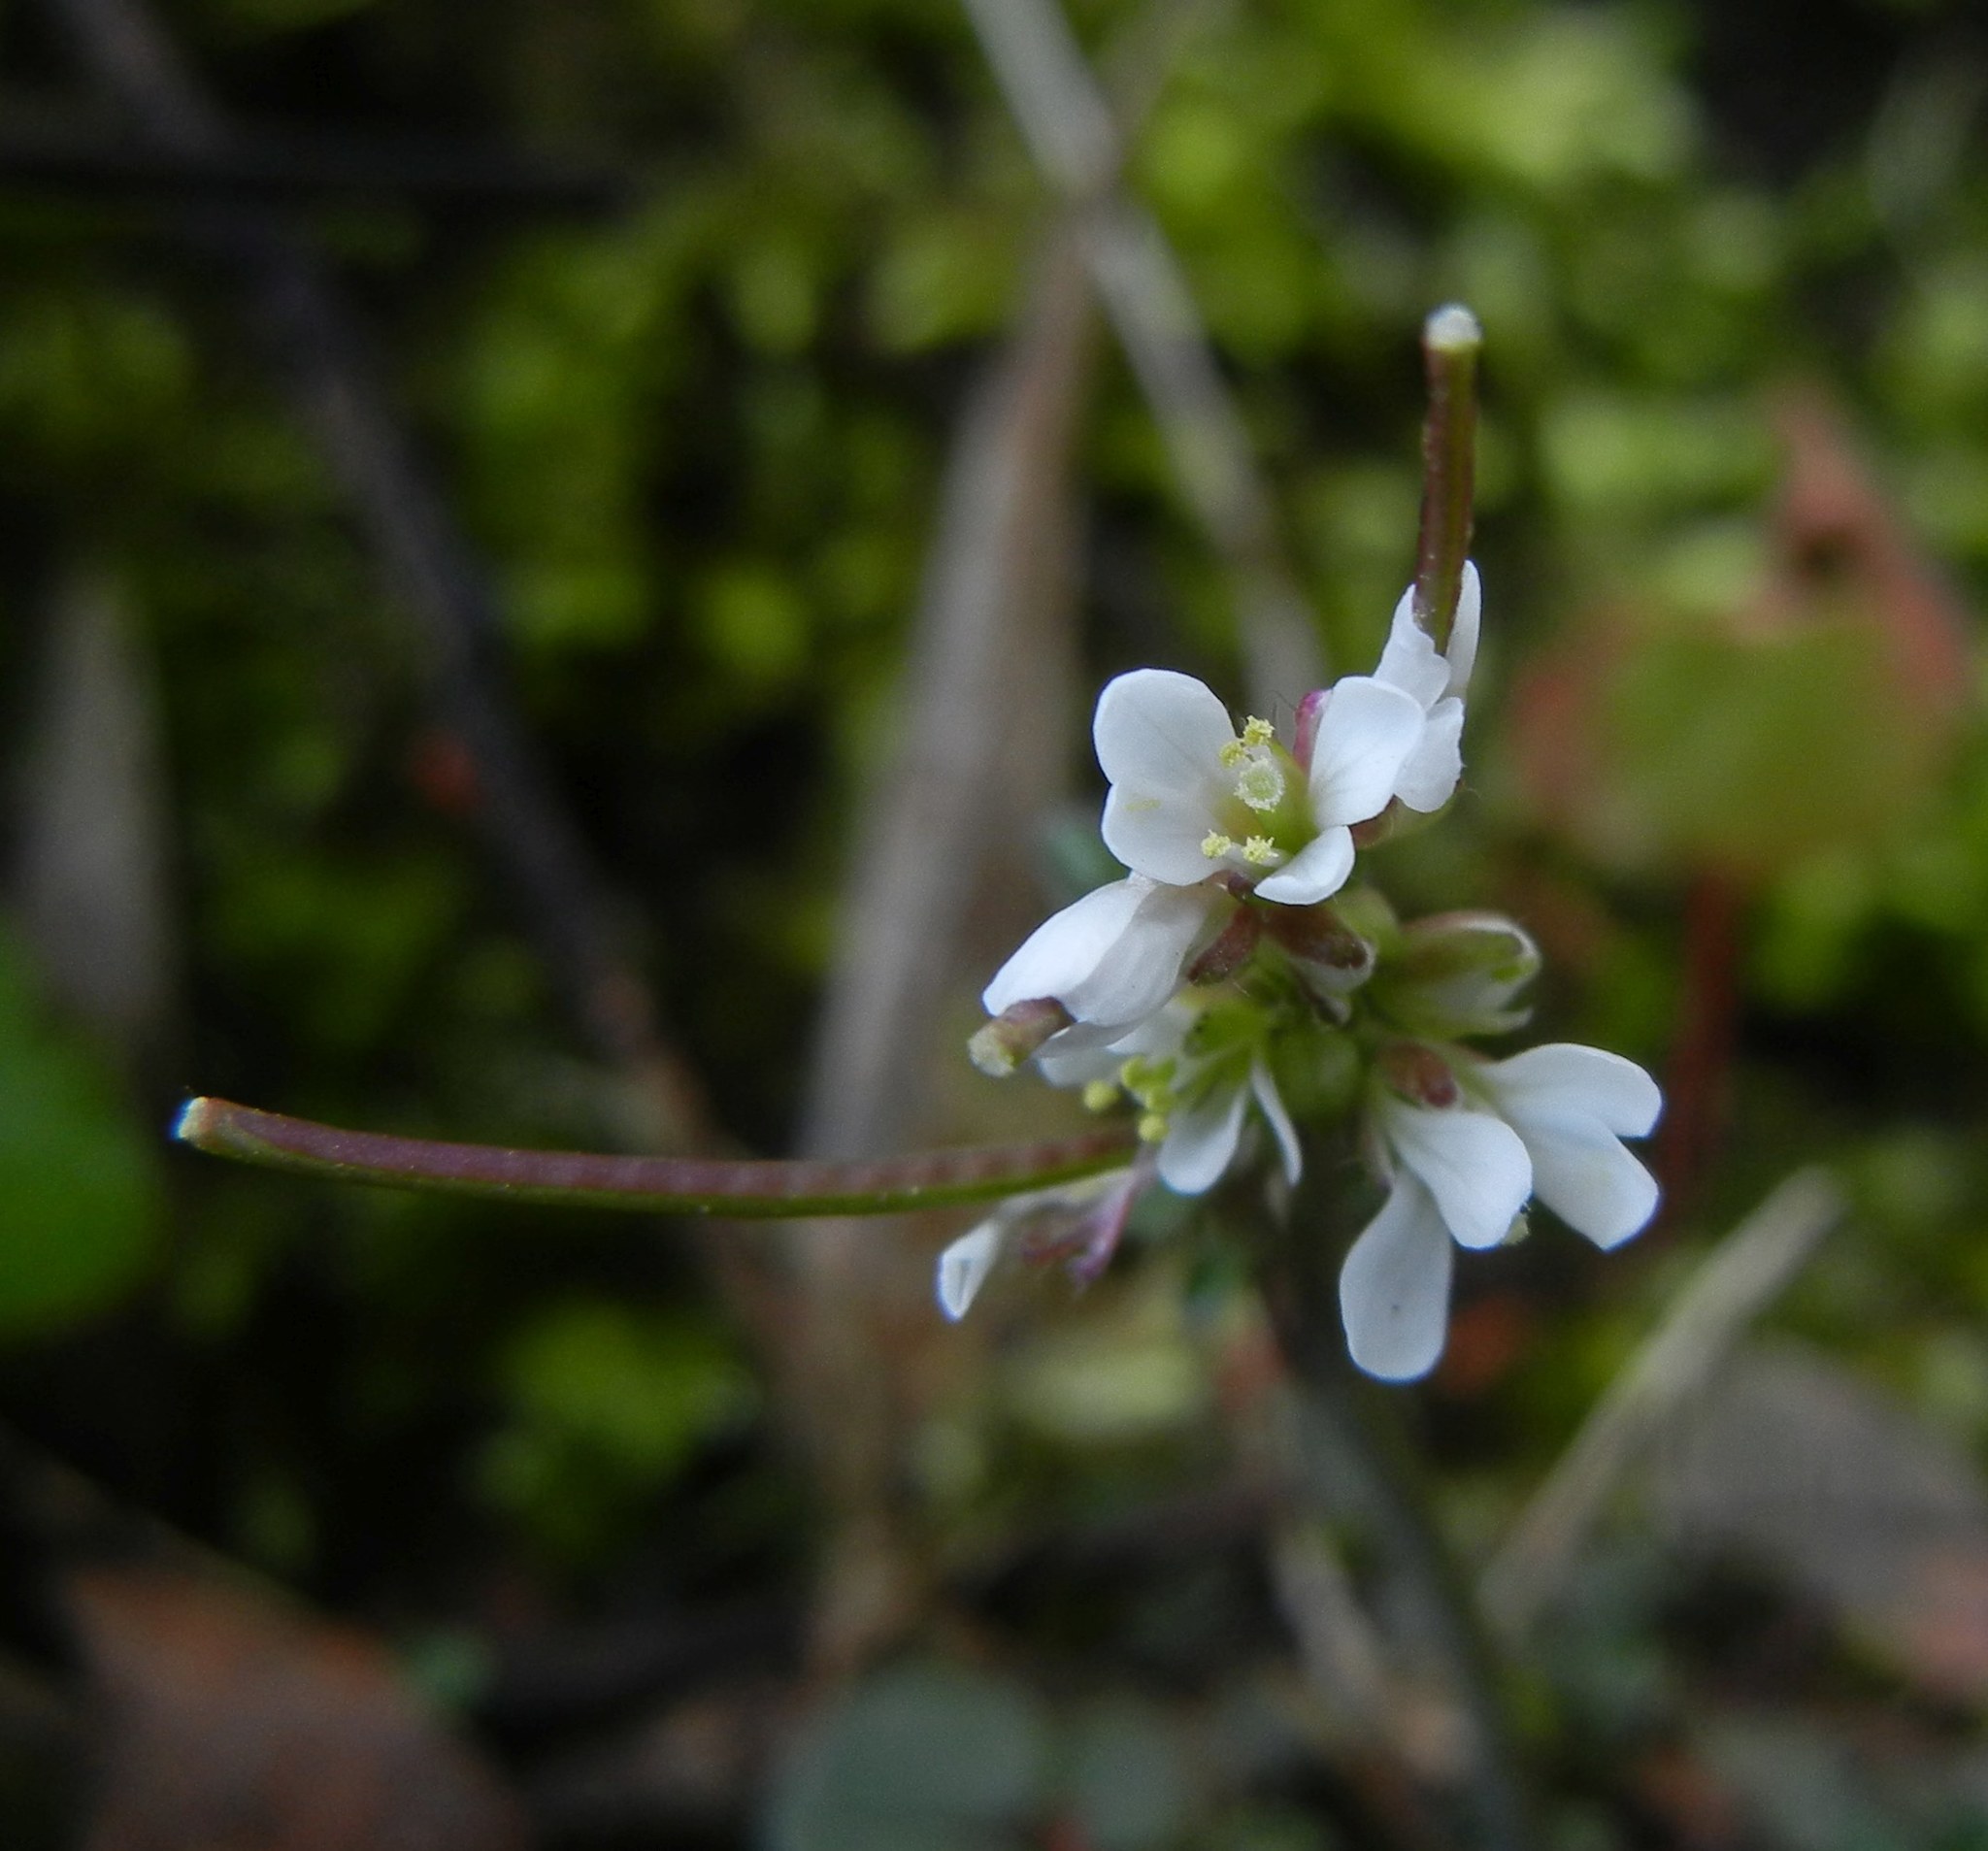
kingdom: Plantae
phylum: Tracheophyta
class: Magnoliopsida
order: Brassicales
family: Brassicaceae
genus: Cardamine
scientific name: Cardamine hirsuta
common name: Hairy bittercress
